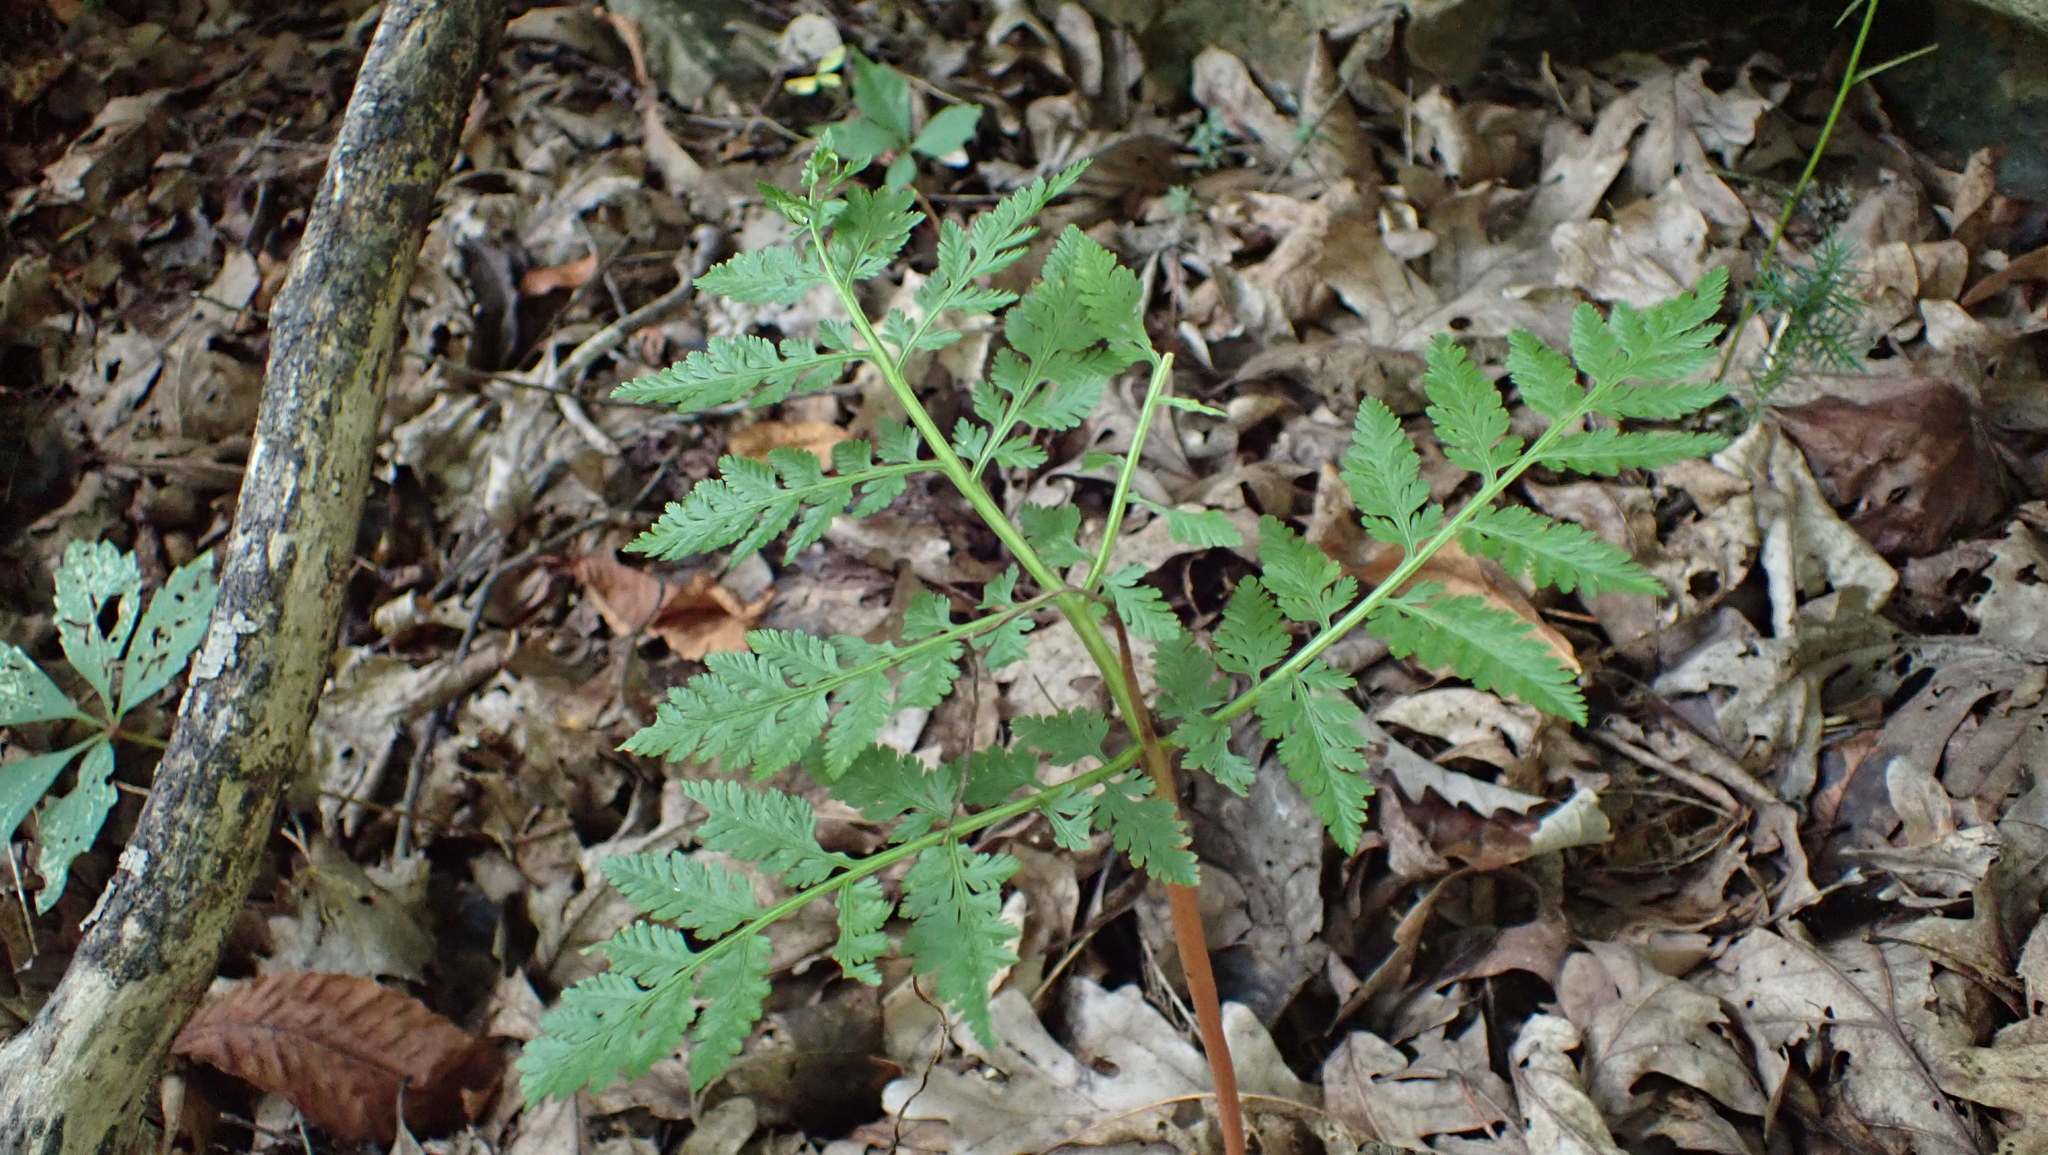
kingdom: Plantae
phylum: Tracheophyta
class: Polypodiopsida
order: Ophioglossales
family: Ophioglossaceae
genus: Botrypus
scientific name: Botrypus virginianus
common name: Common grapefern
